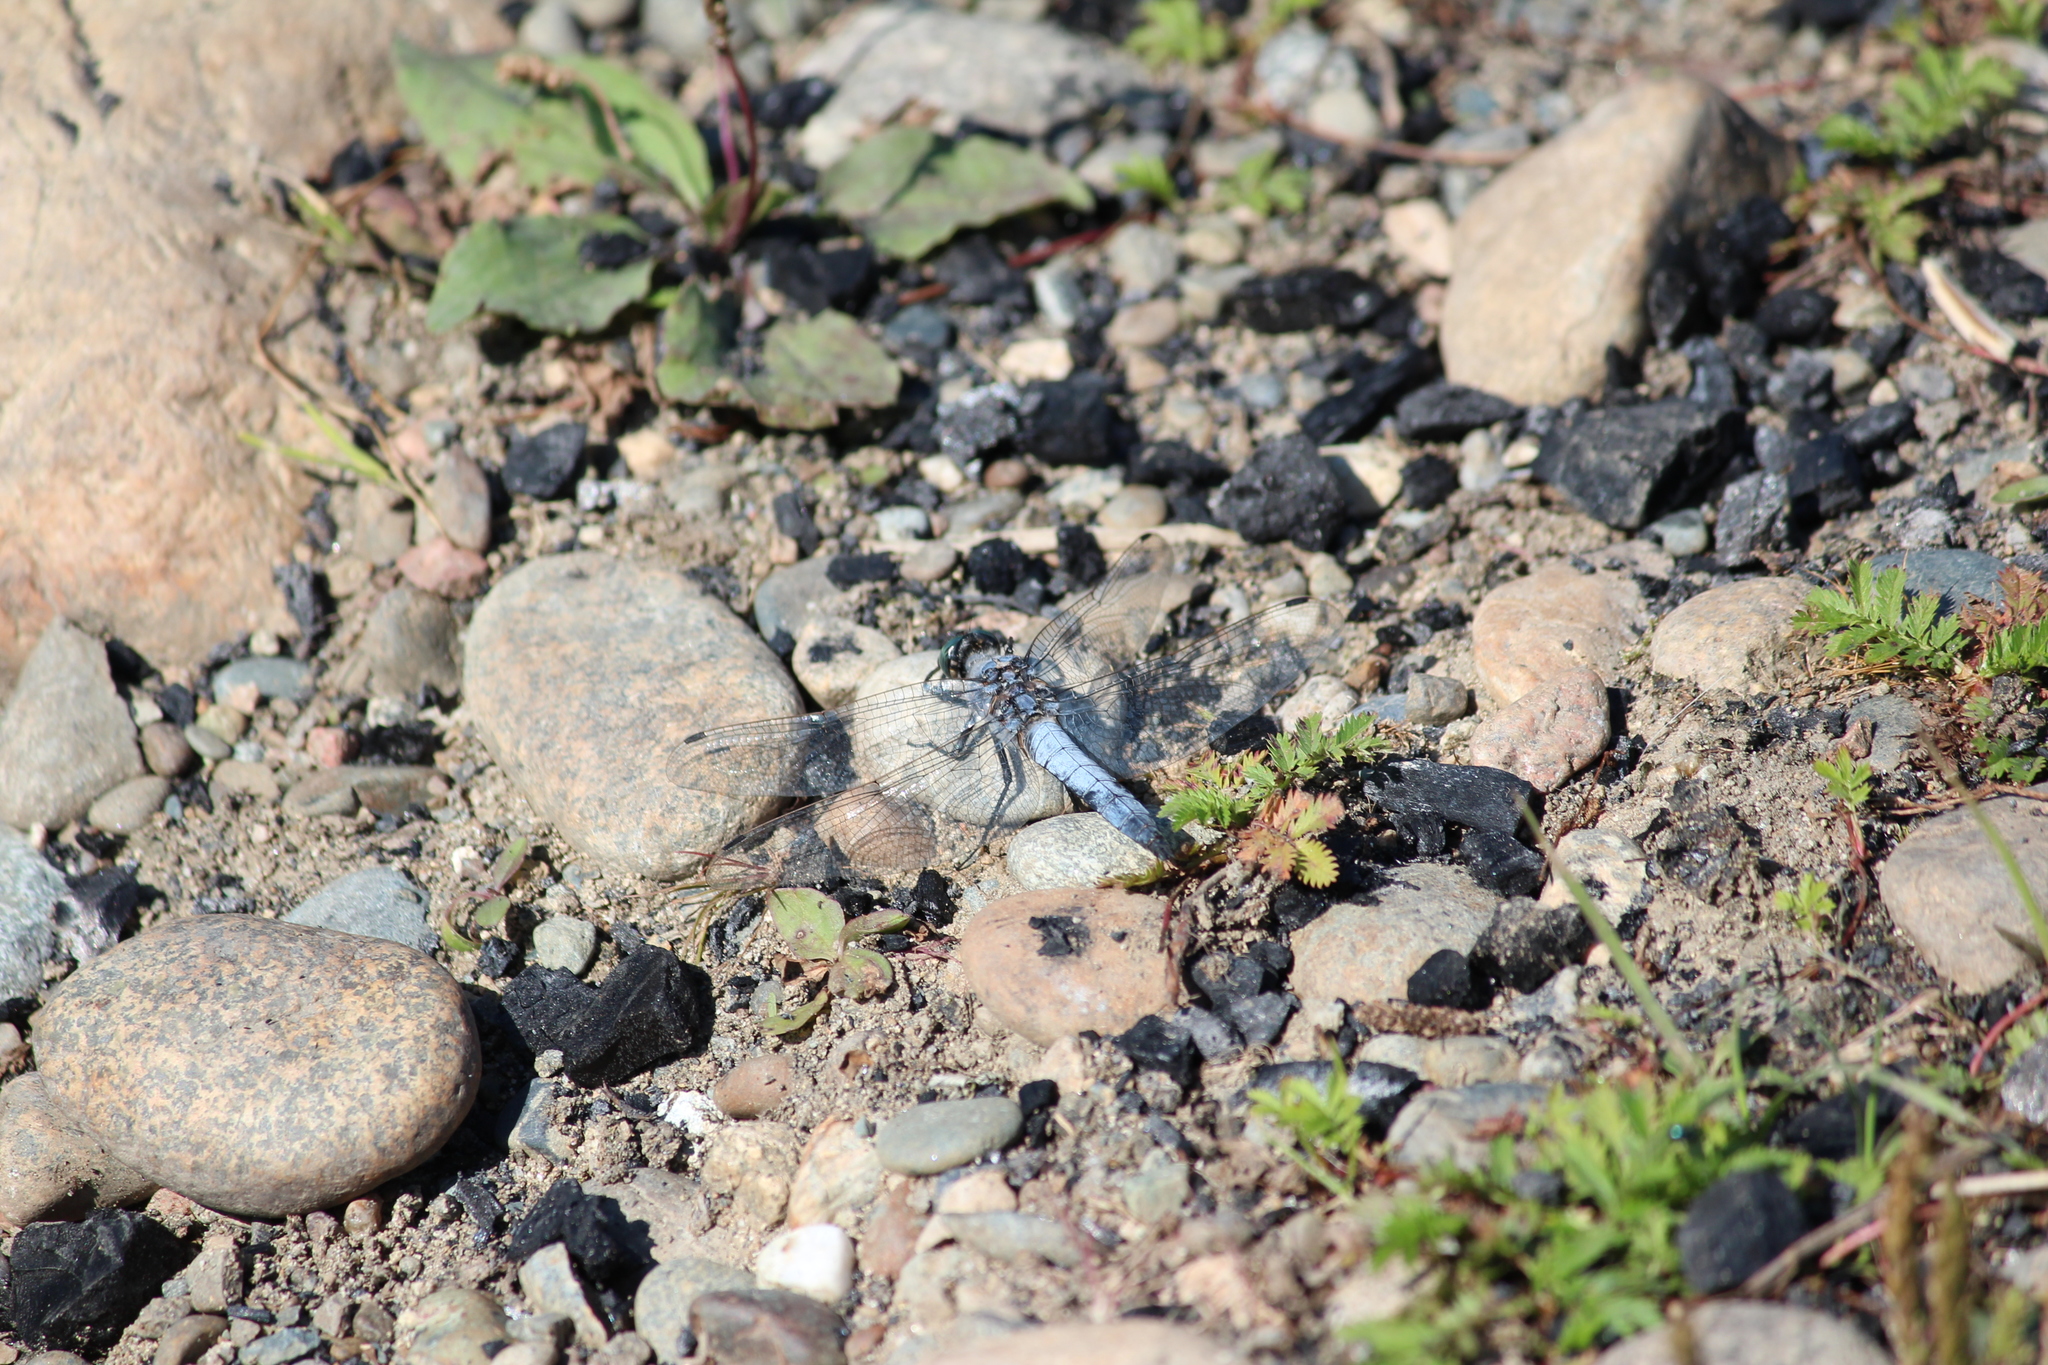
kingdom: Animalia
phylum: Arthropoda
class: Insecta
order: Odonata
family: Libellulidae
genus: Orthetrum
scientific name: Orthetrum cancellatum
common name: Black-tailed skimmer
